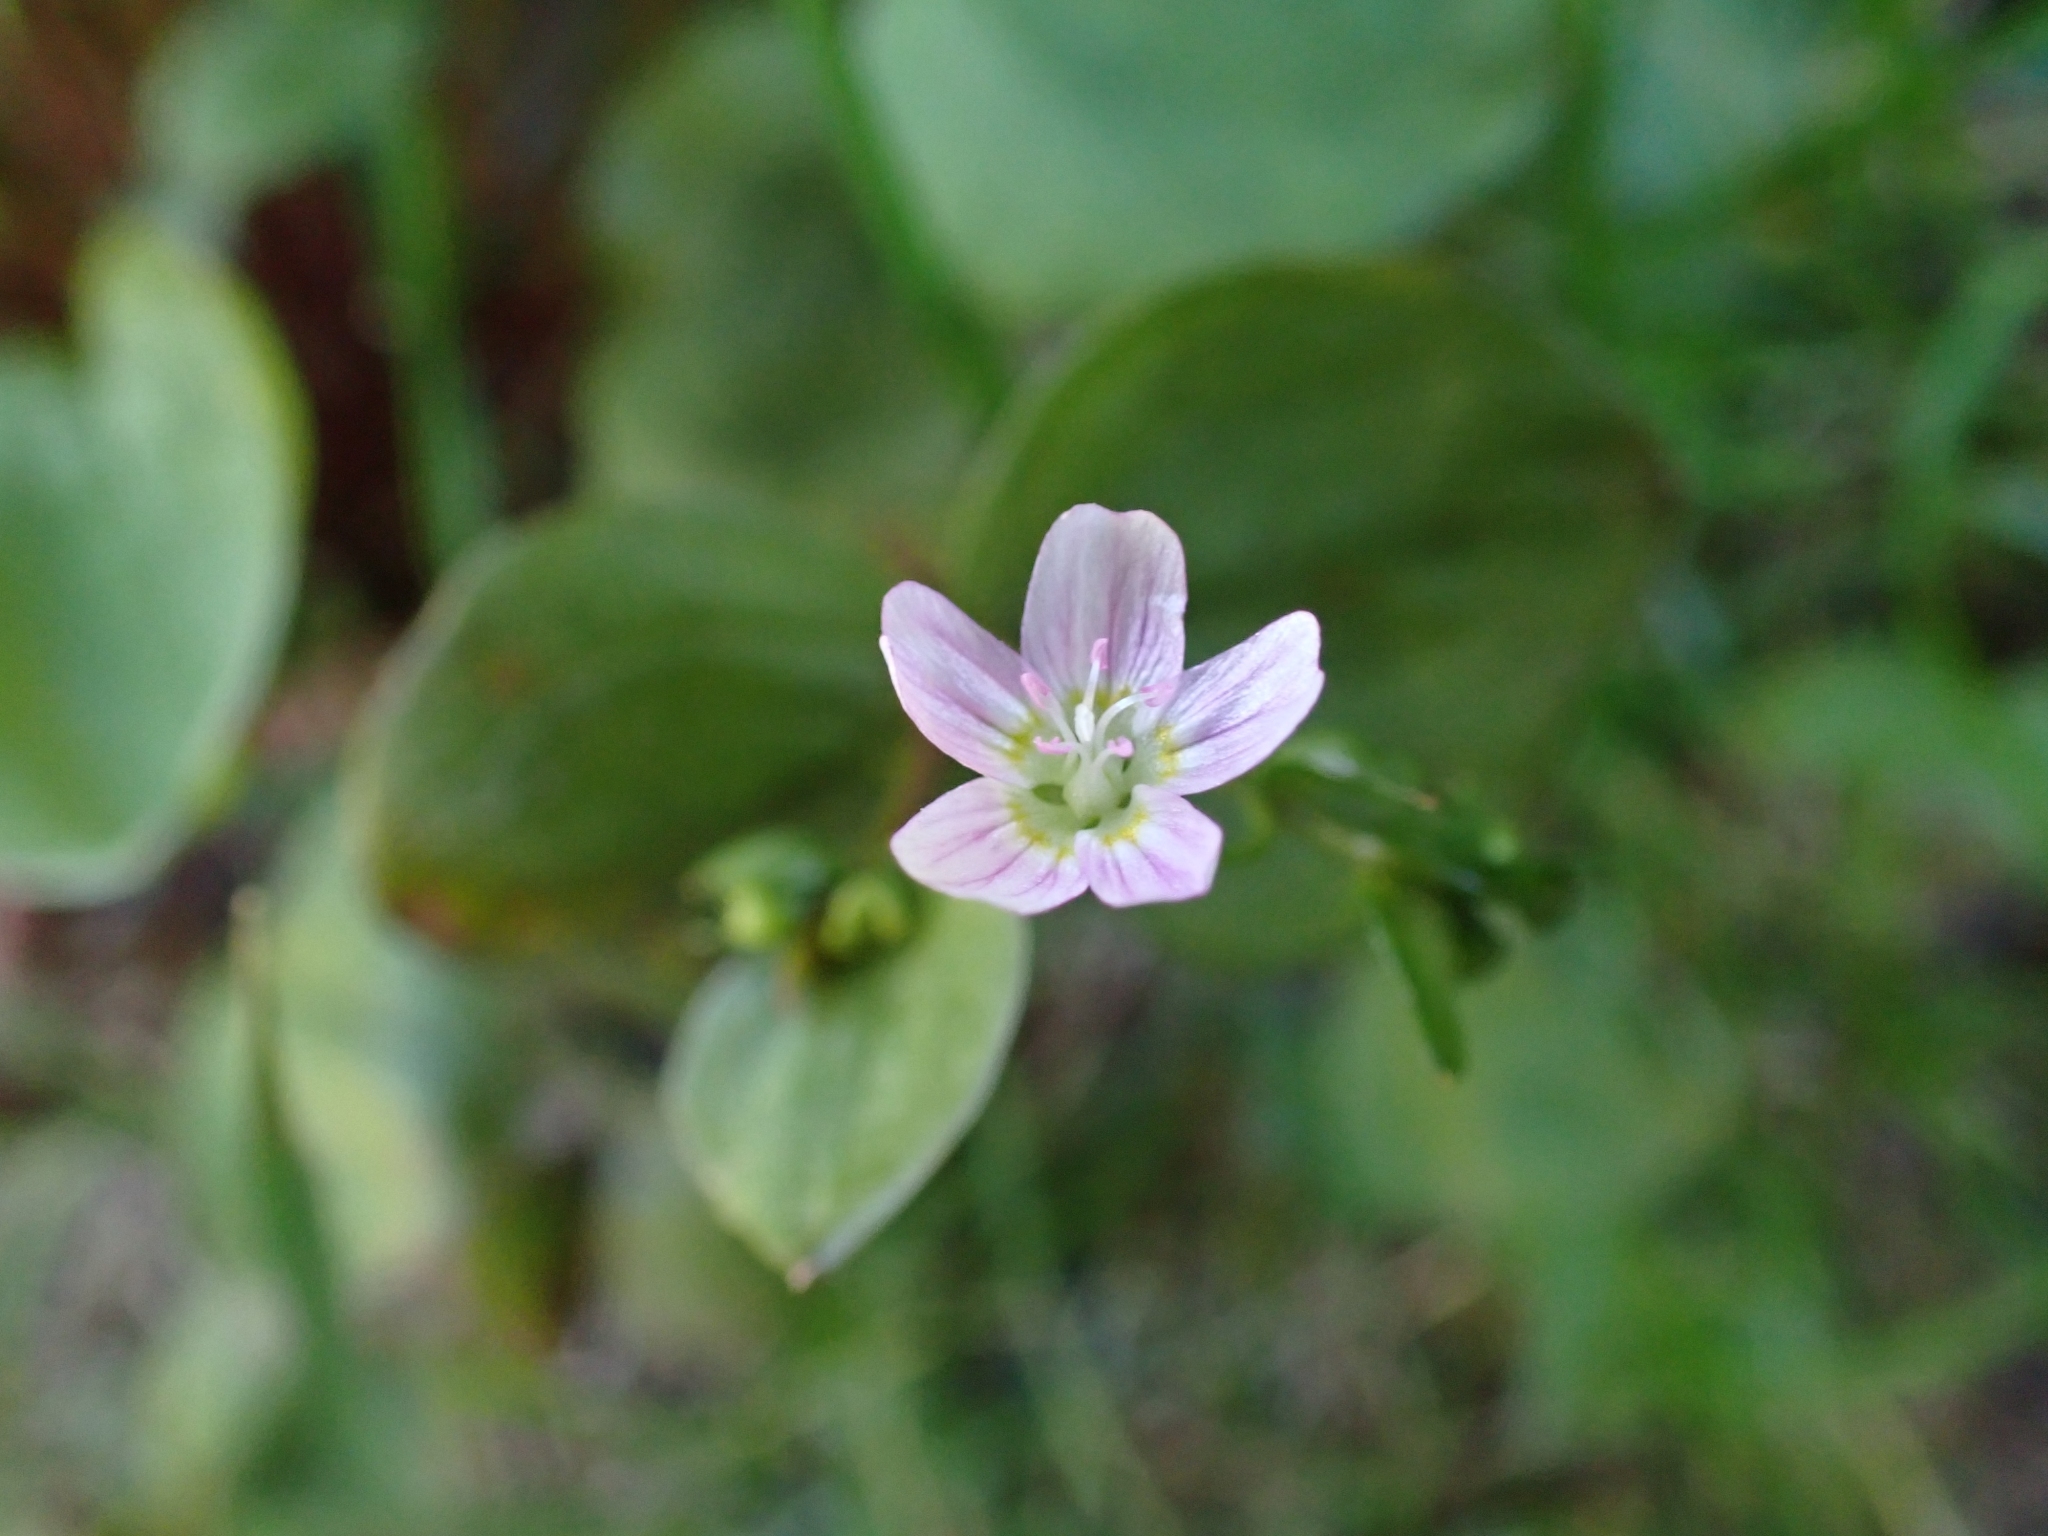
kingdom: Plantae
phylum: Tracheophyta
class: Magnoliopsida
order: Caryophyllales
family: Montiaceae
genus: Claytonia
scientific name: Claytonia sibirica
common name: Pink purslane
